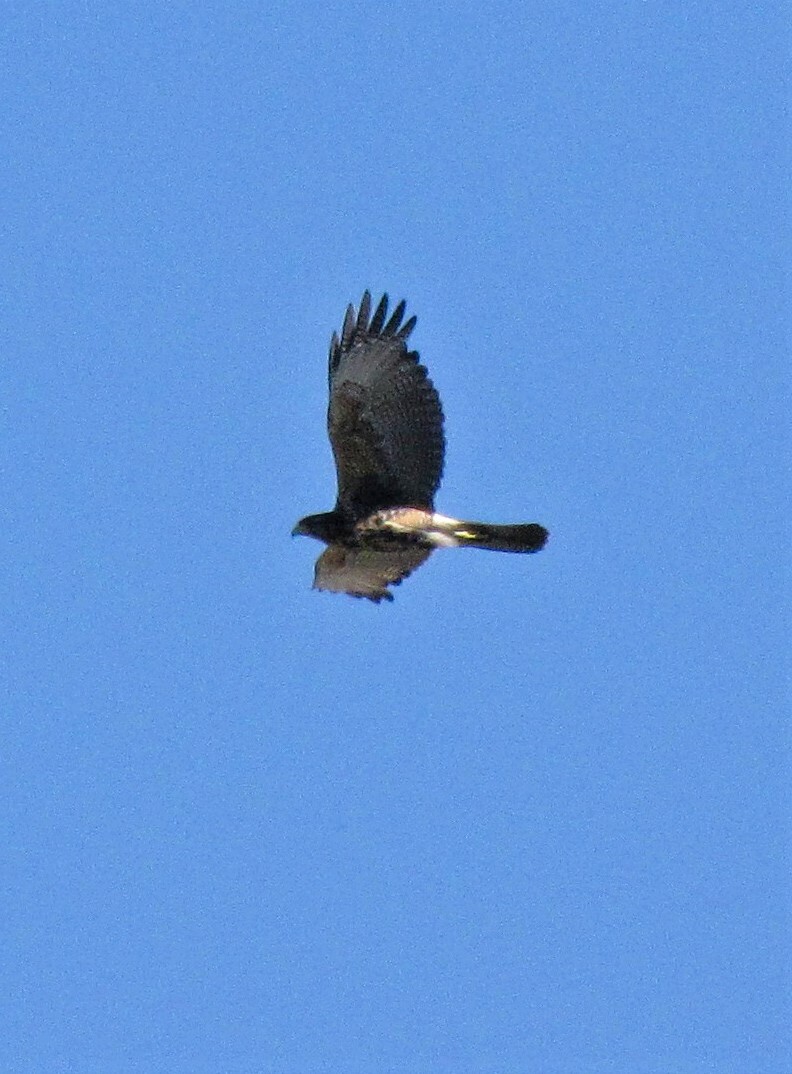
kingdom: Animalia
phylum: Chordata
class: Aves
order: Accipitriformes
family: Accipitridae
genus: Parabuteo
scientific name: Parabuteo unicinctus
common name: Harris's hawk
